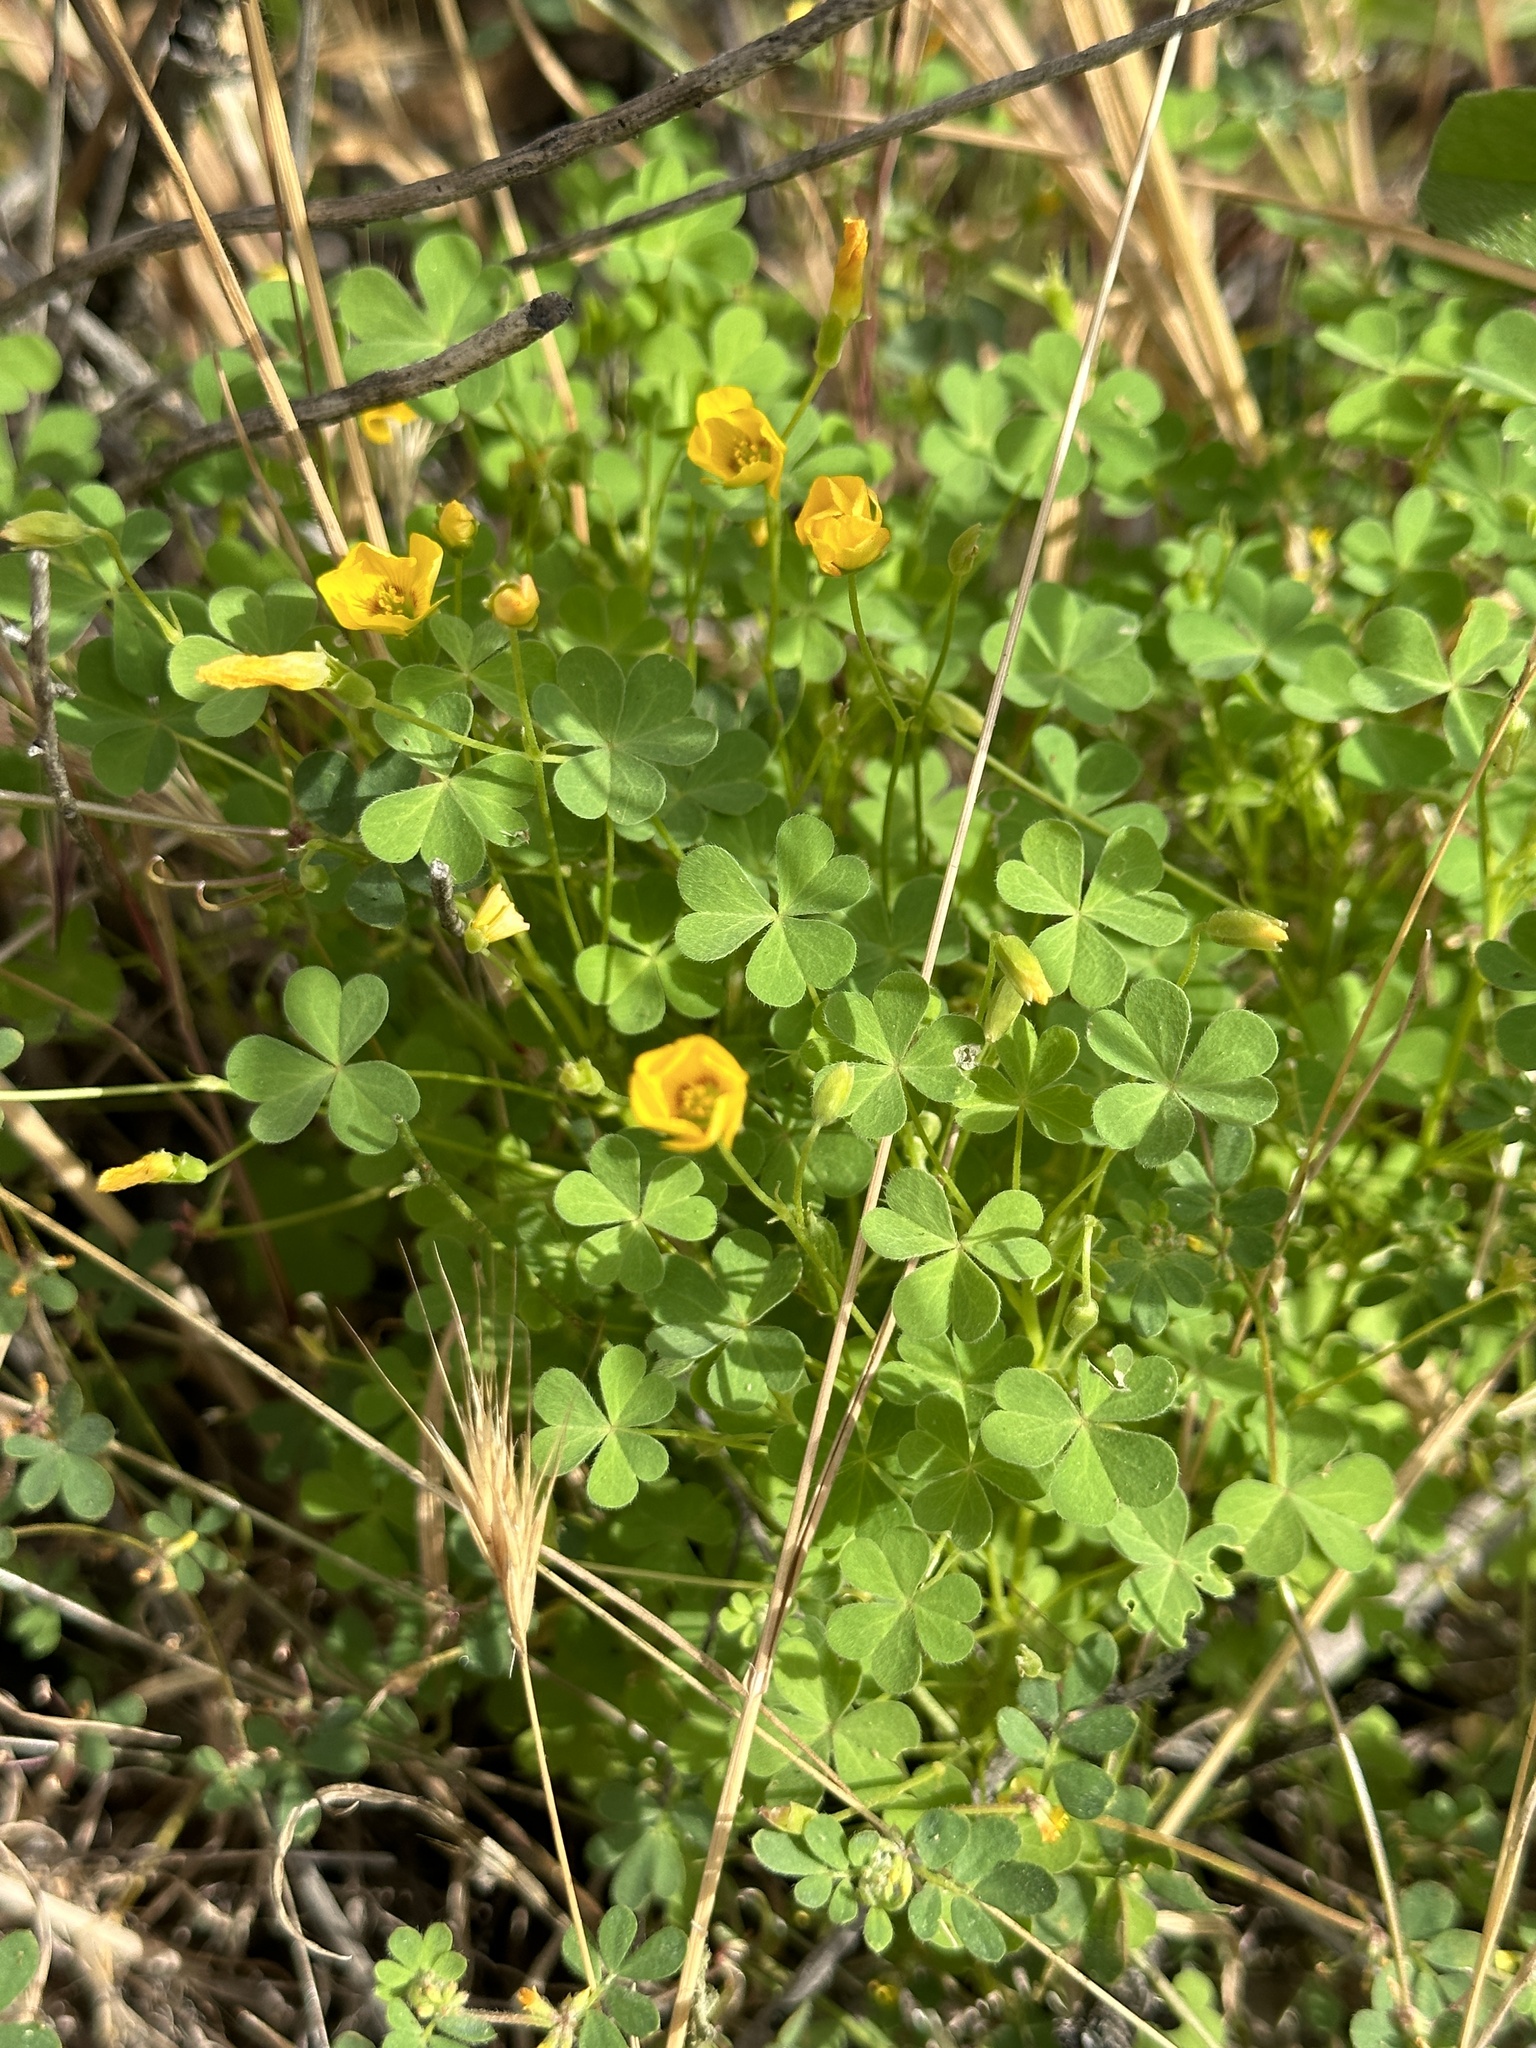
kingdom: Plantae
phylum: Tracheophyta
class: Magnoliopsida
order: Oxalidales
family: Oxalidaceae
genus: Oxalis
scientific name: Oxalis californica
